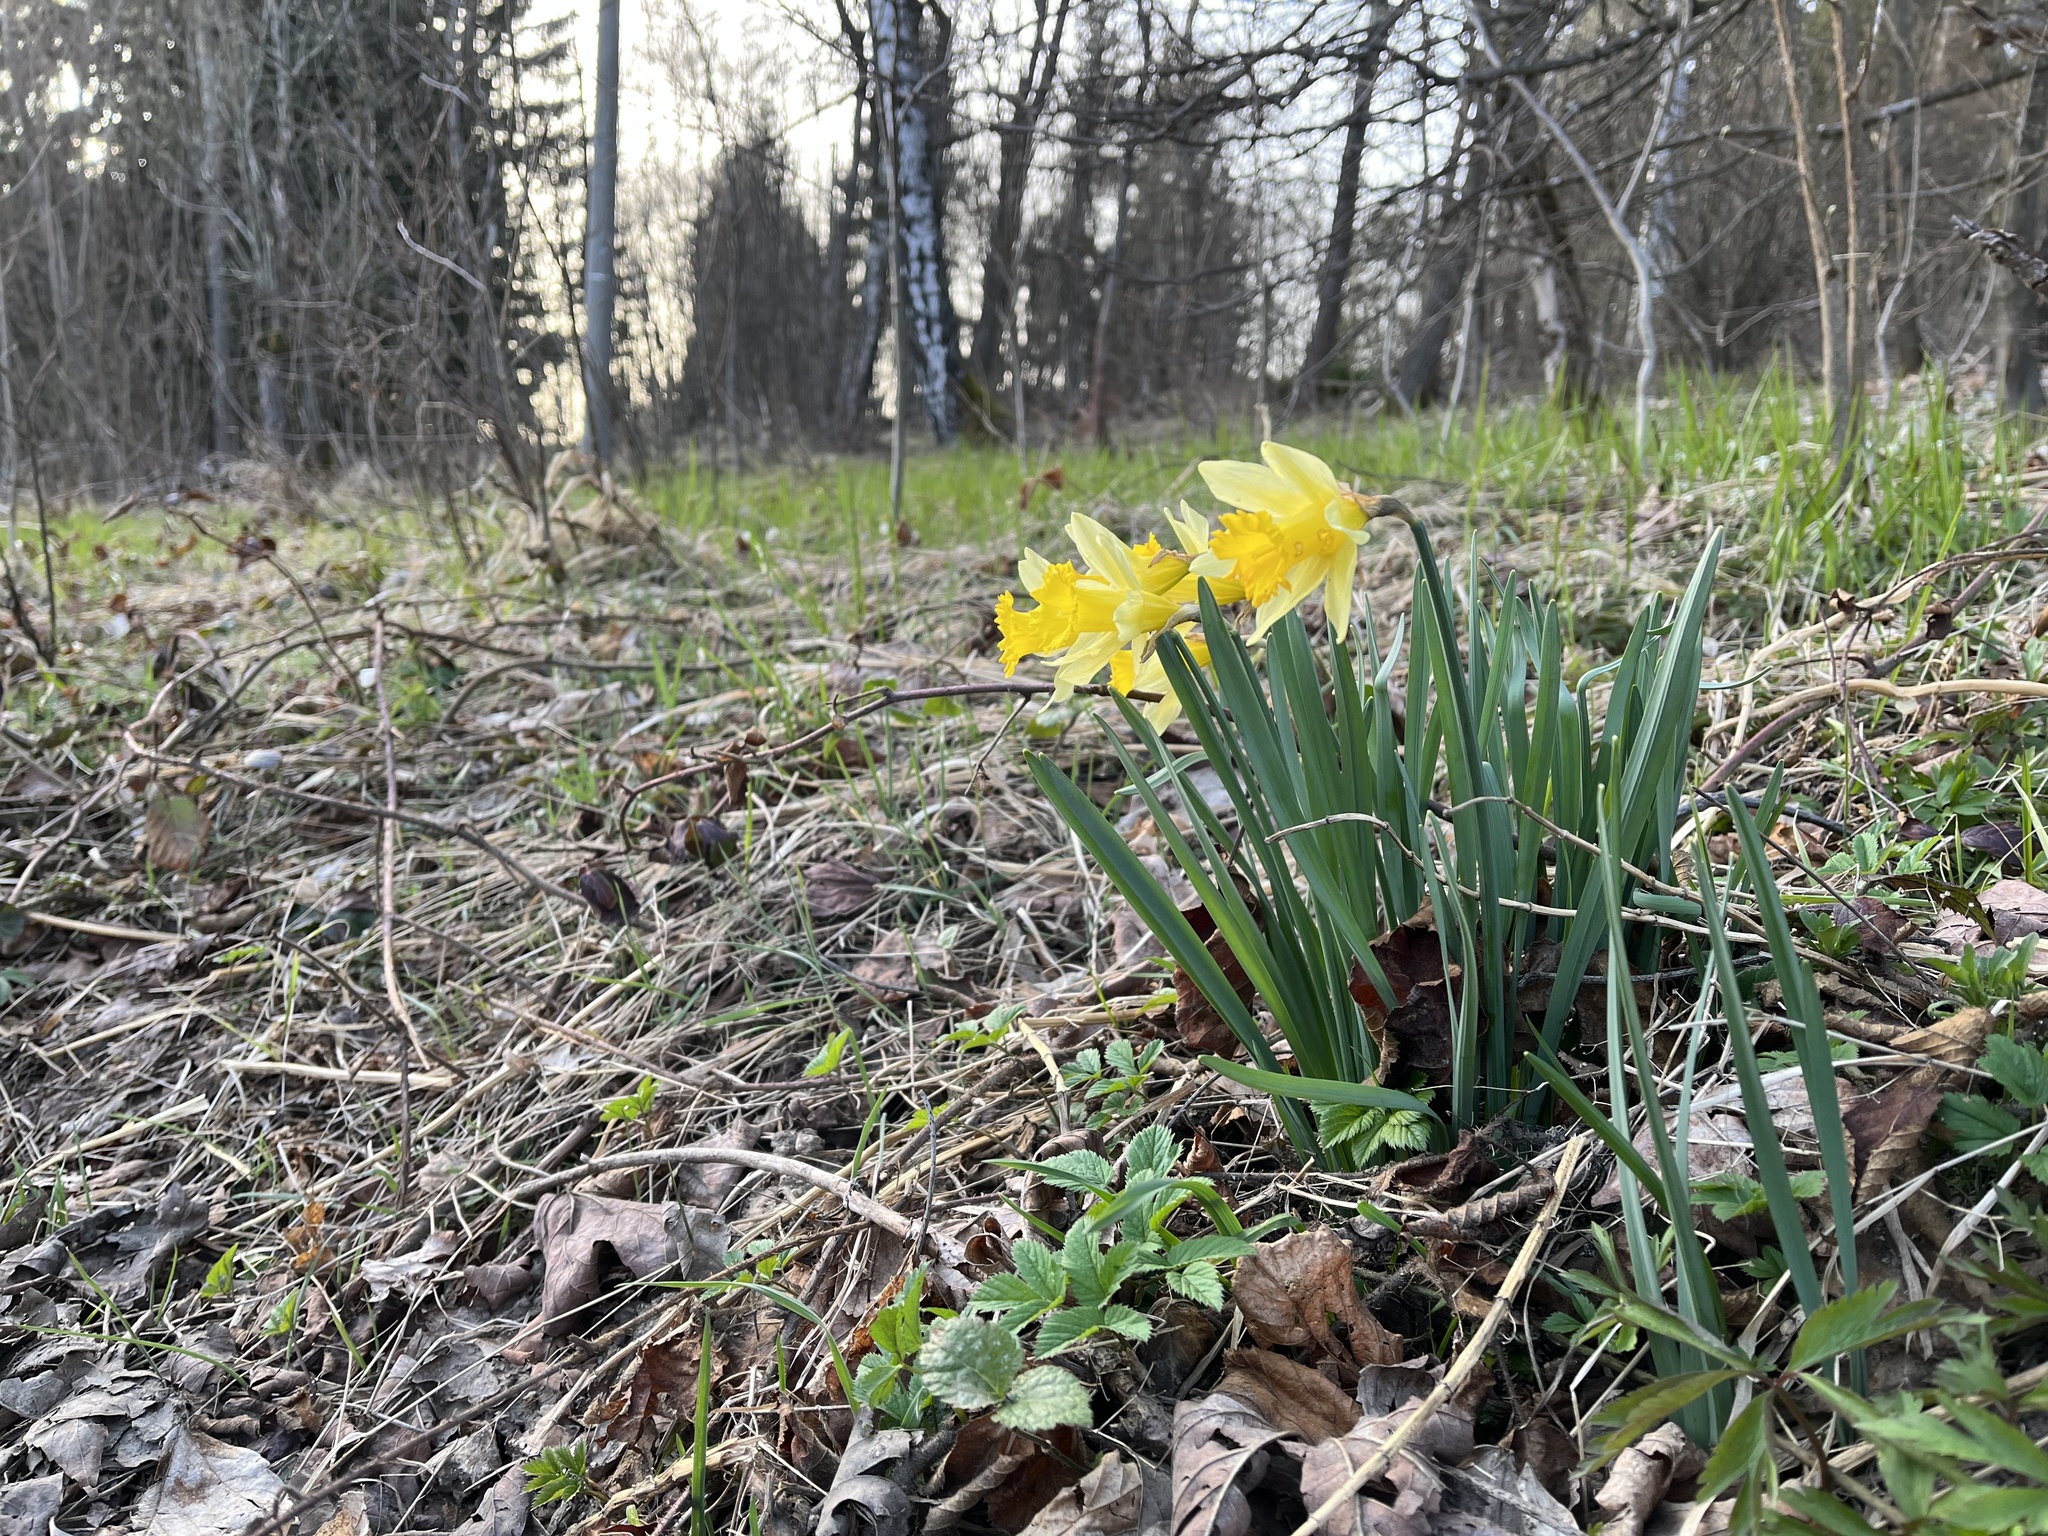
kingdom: Plantae
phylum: Tracheophyta
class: Liliopsida
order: Asparagales
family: Amaryllidaceae
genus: Narcissus
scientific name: Narcissus pseudonarcissus
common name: Daffodil
